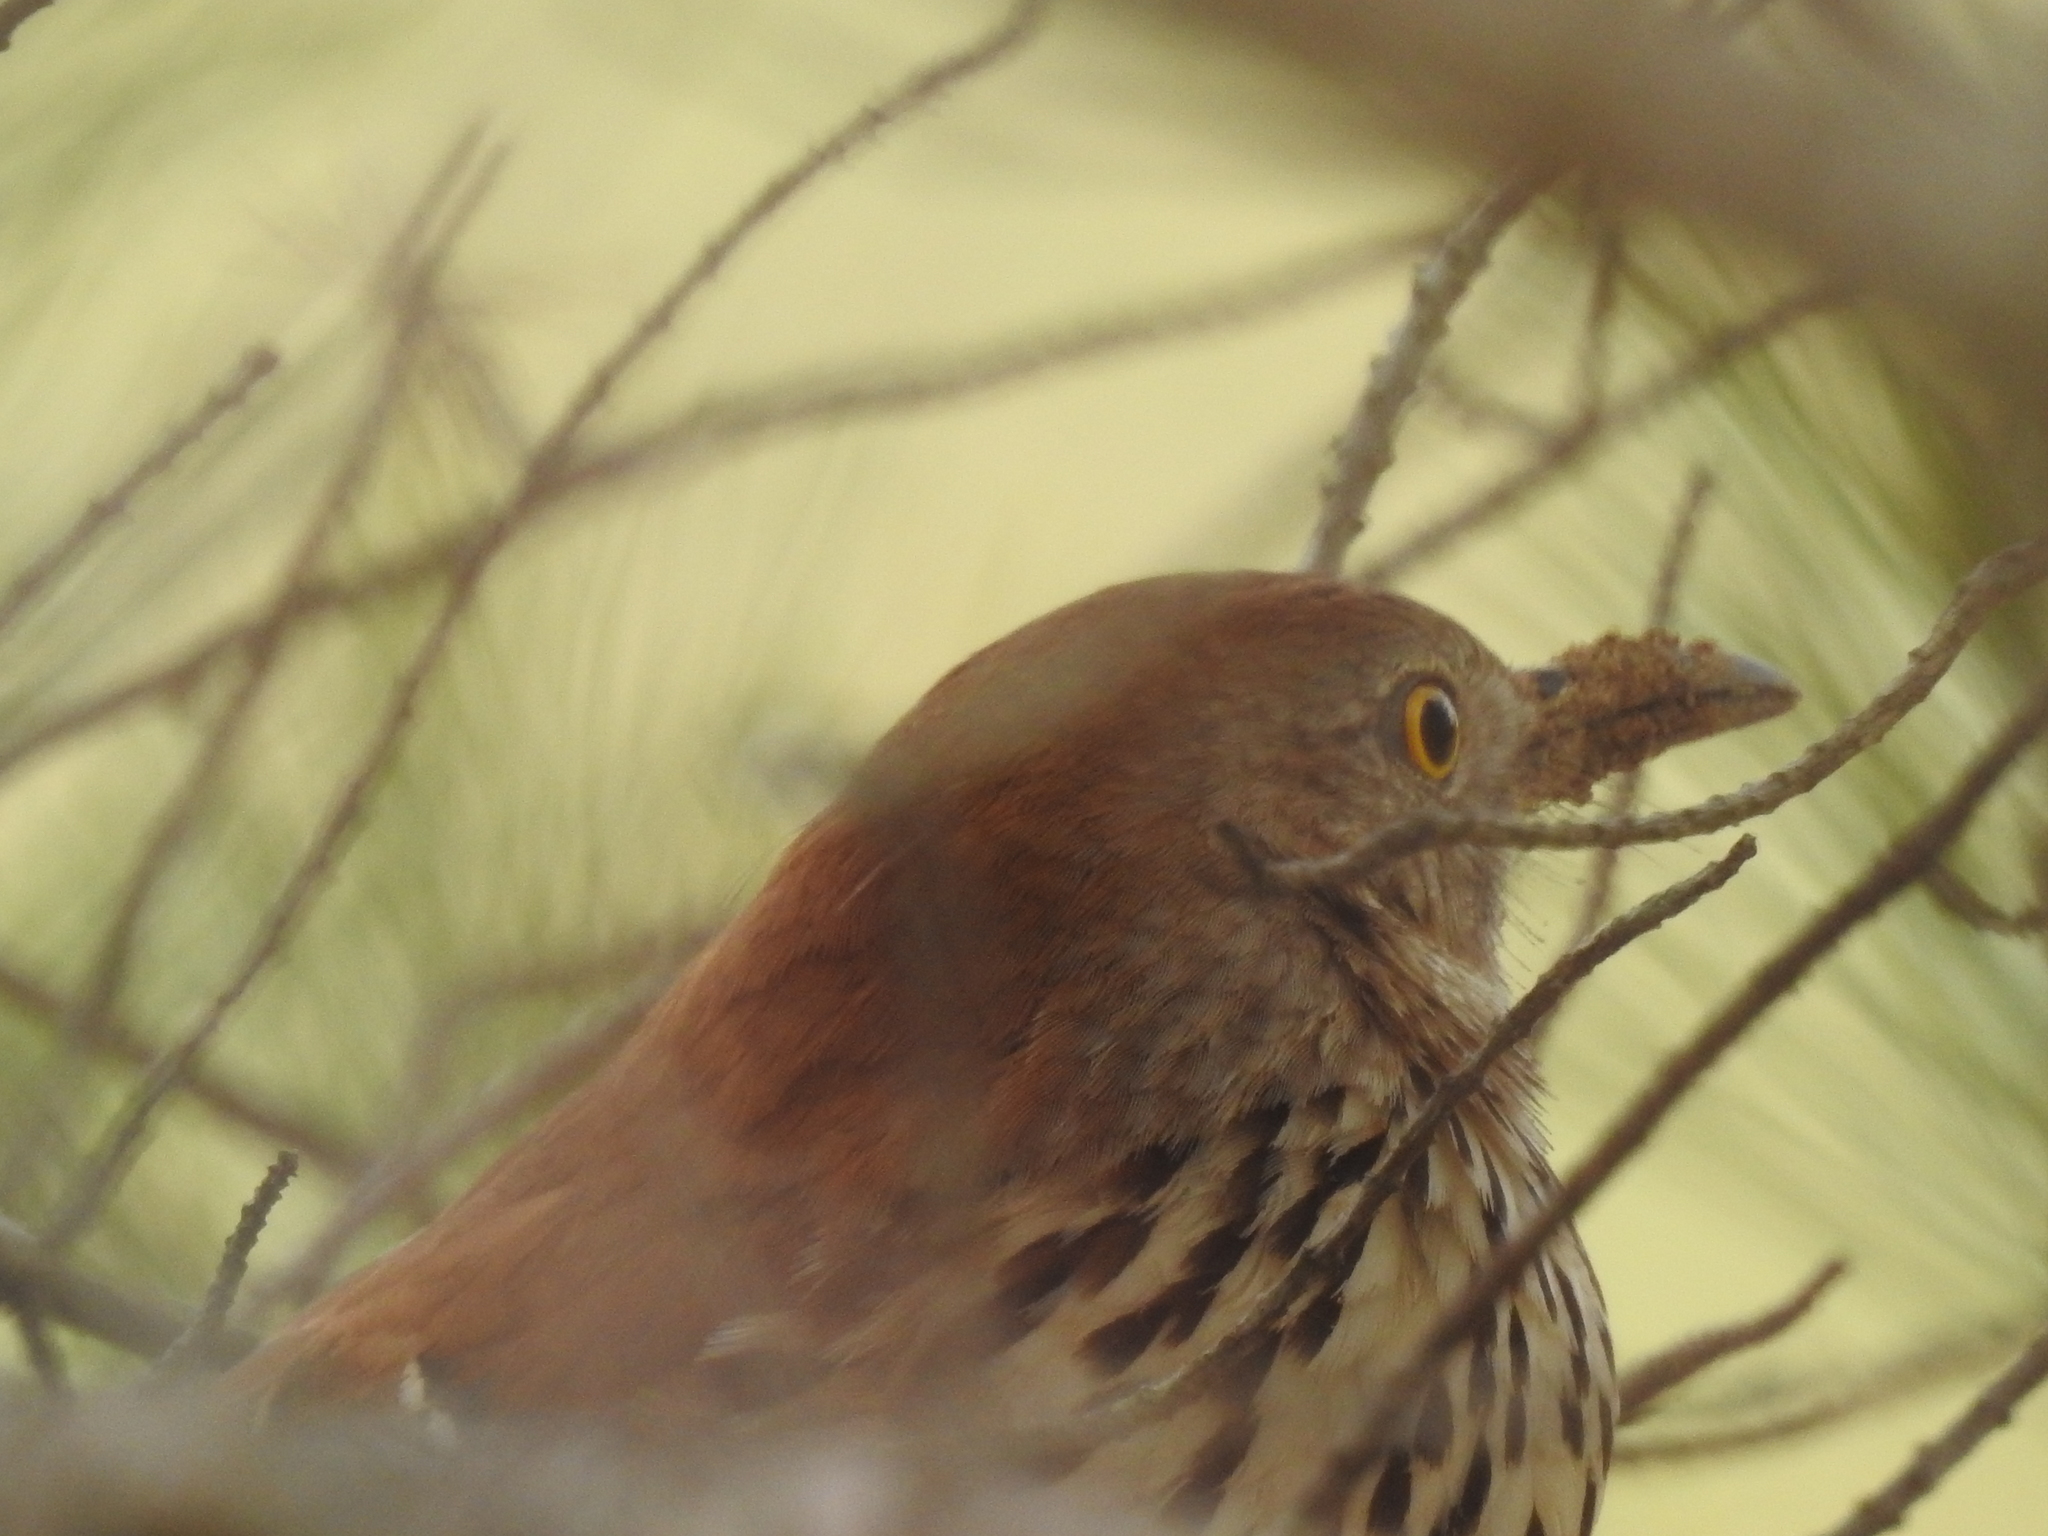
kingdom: Animalia
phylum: Chordata
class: Aves
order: Passeriformes
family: Mimidae
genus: Toxostoma
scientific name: Toxostoma rufum
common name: Brown thrasher
